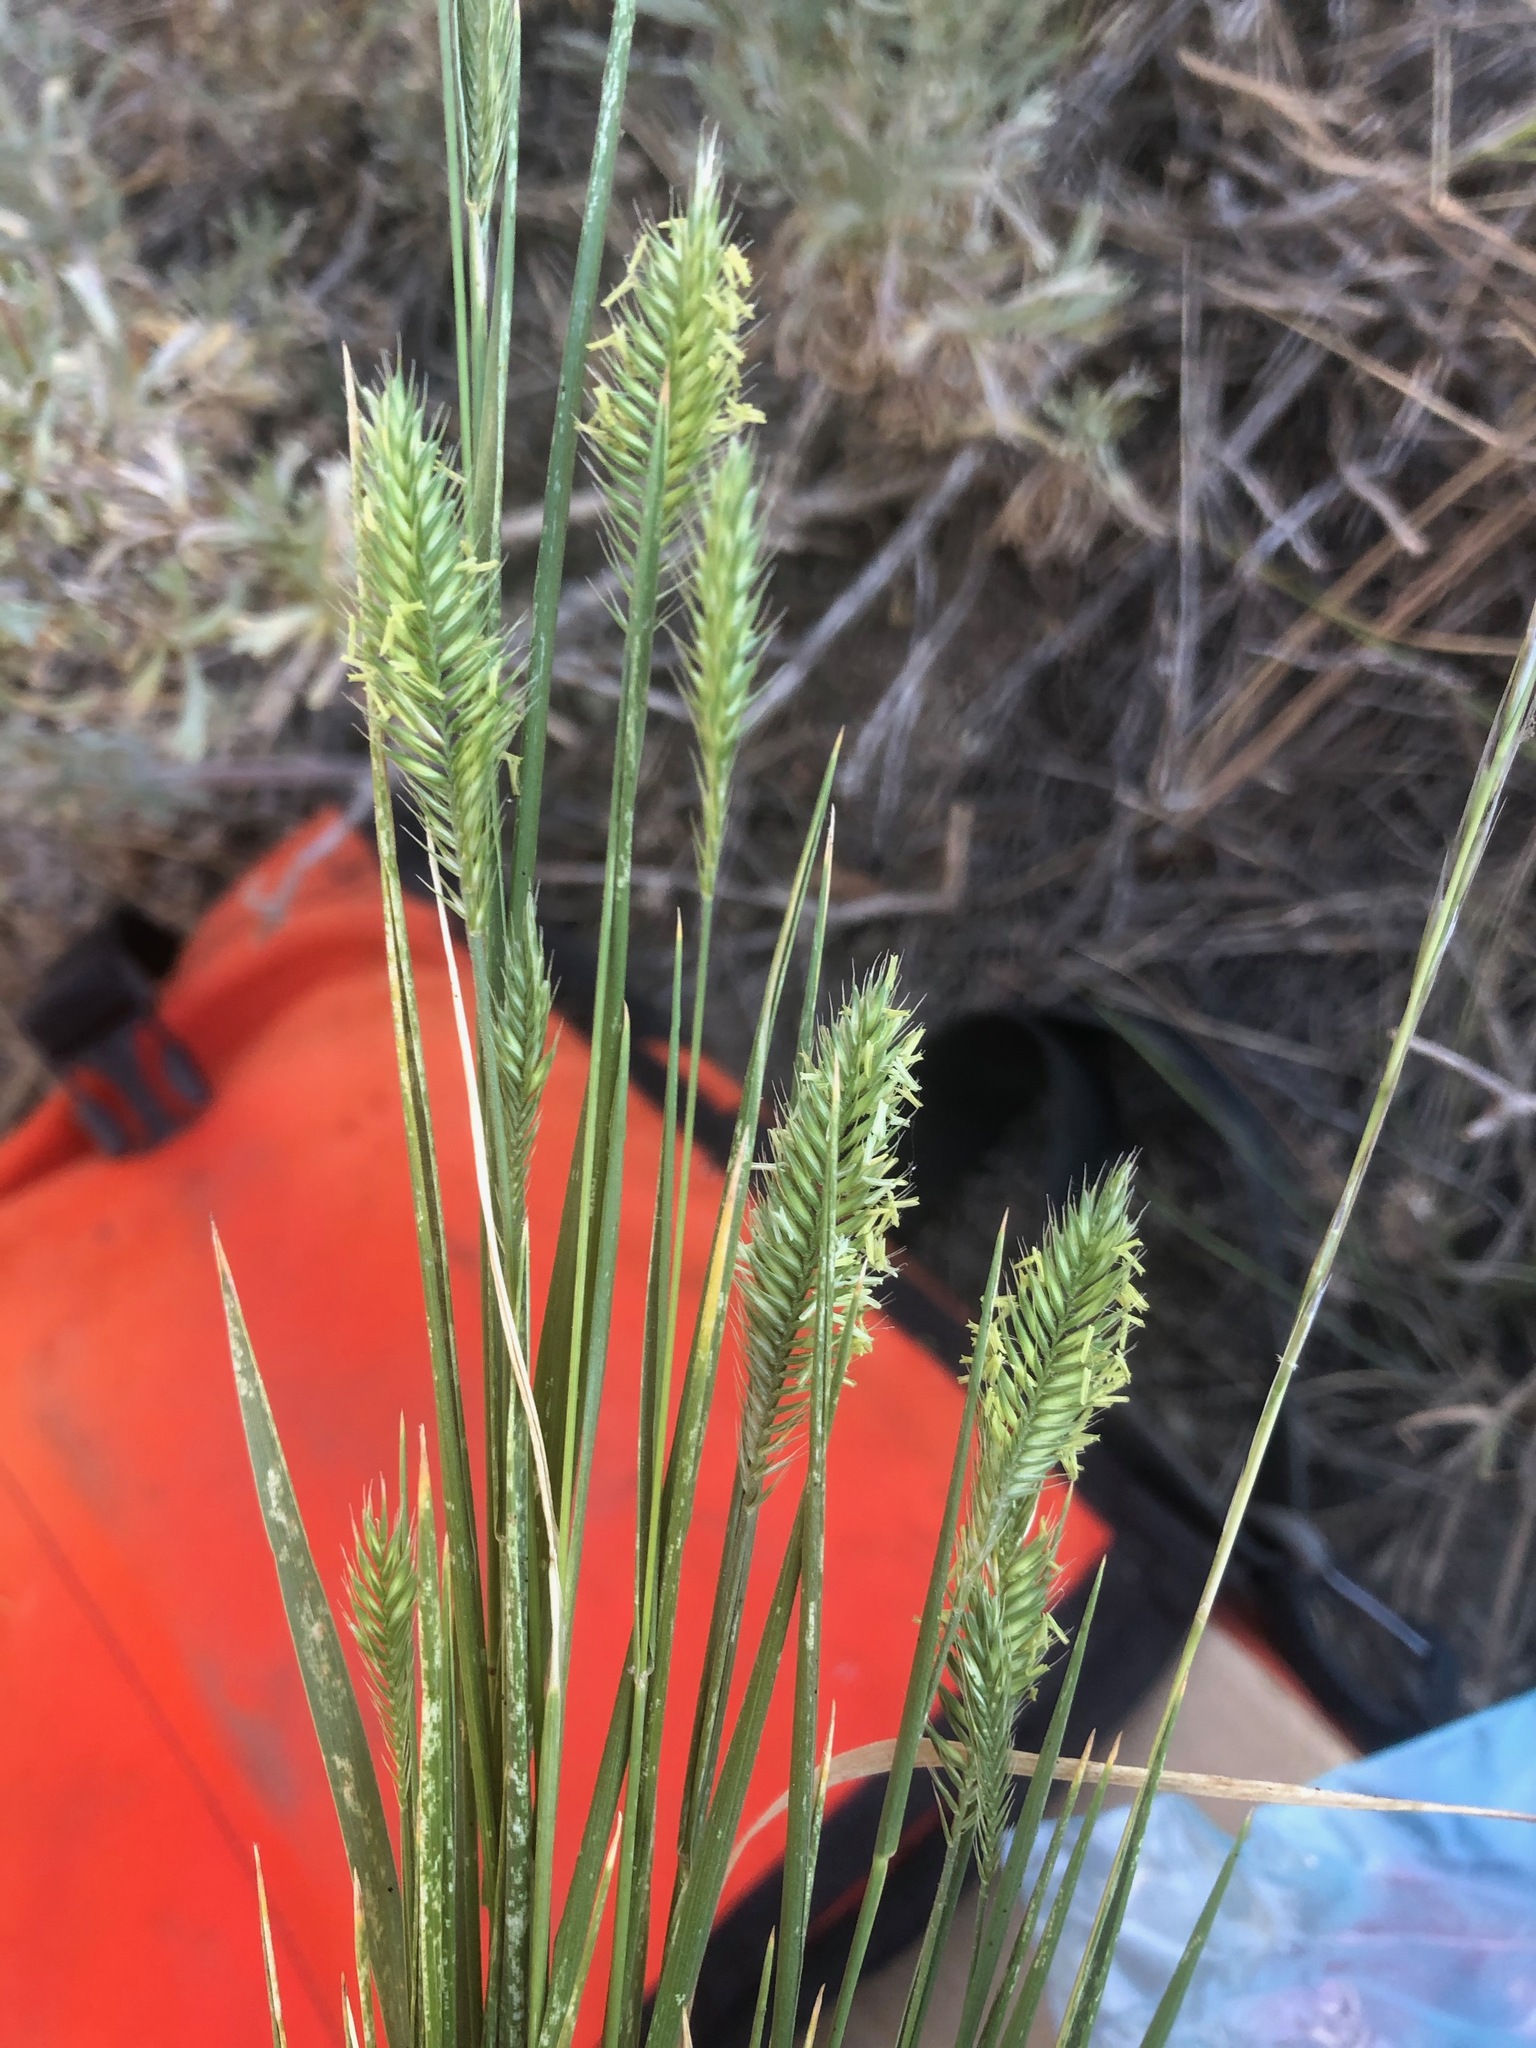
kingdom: Plantae
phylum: Tracheophyta
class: Liliopsida
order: Poales
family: Poaceae
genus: Agropyron
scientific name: Agropyron cristatum
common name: Crested wheatgrass
